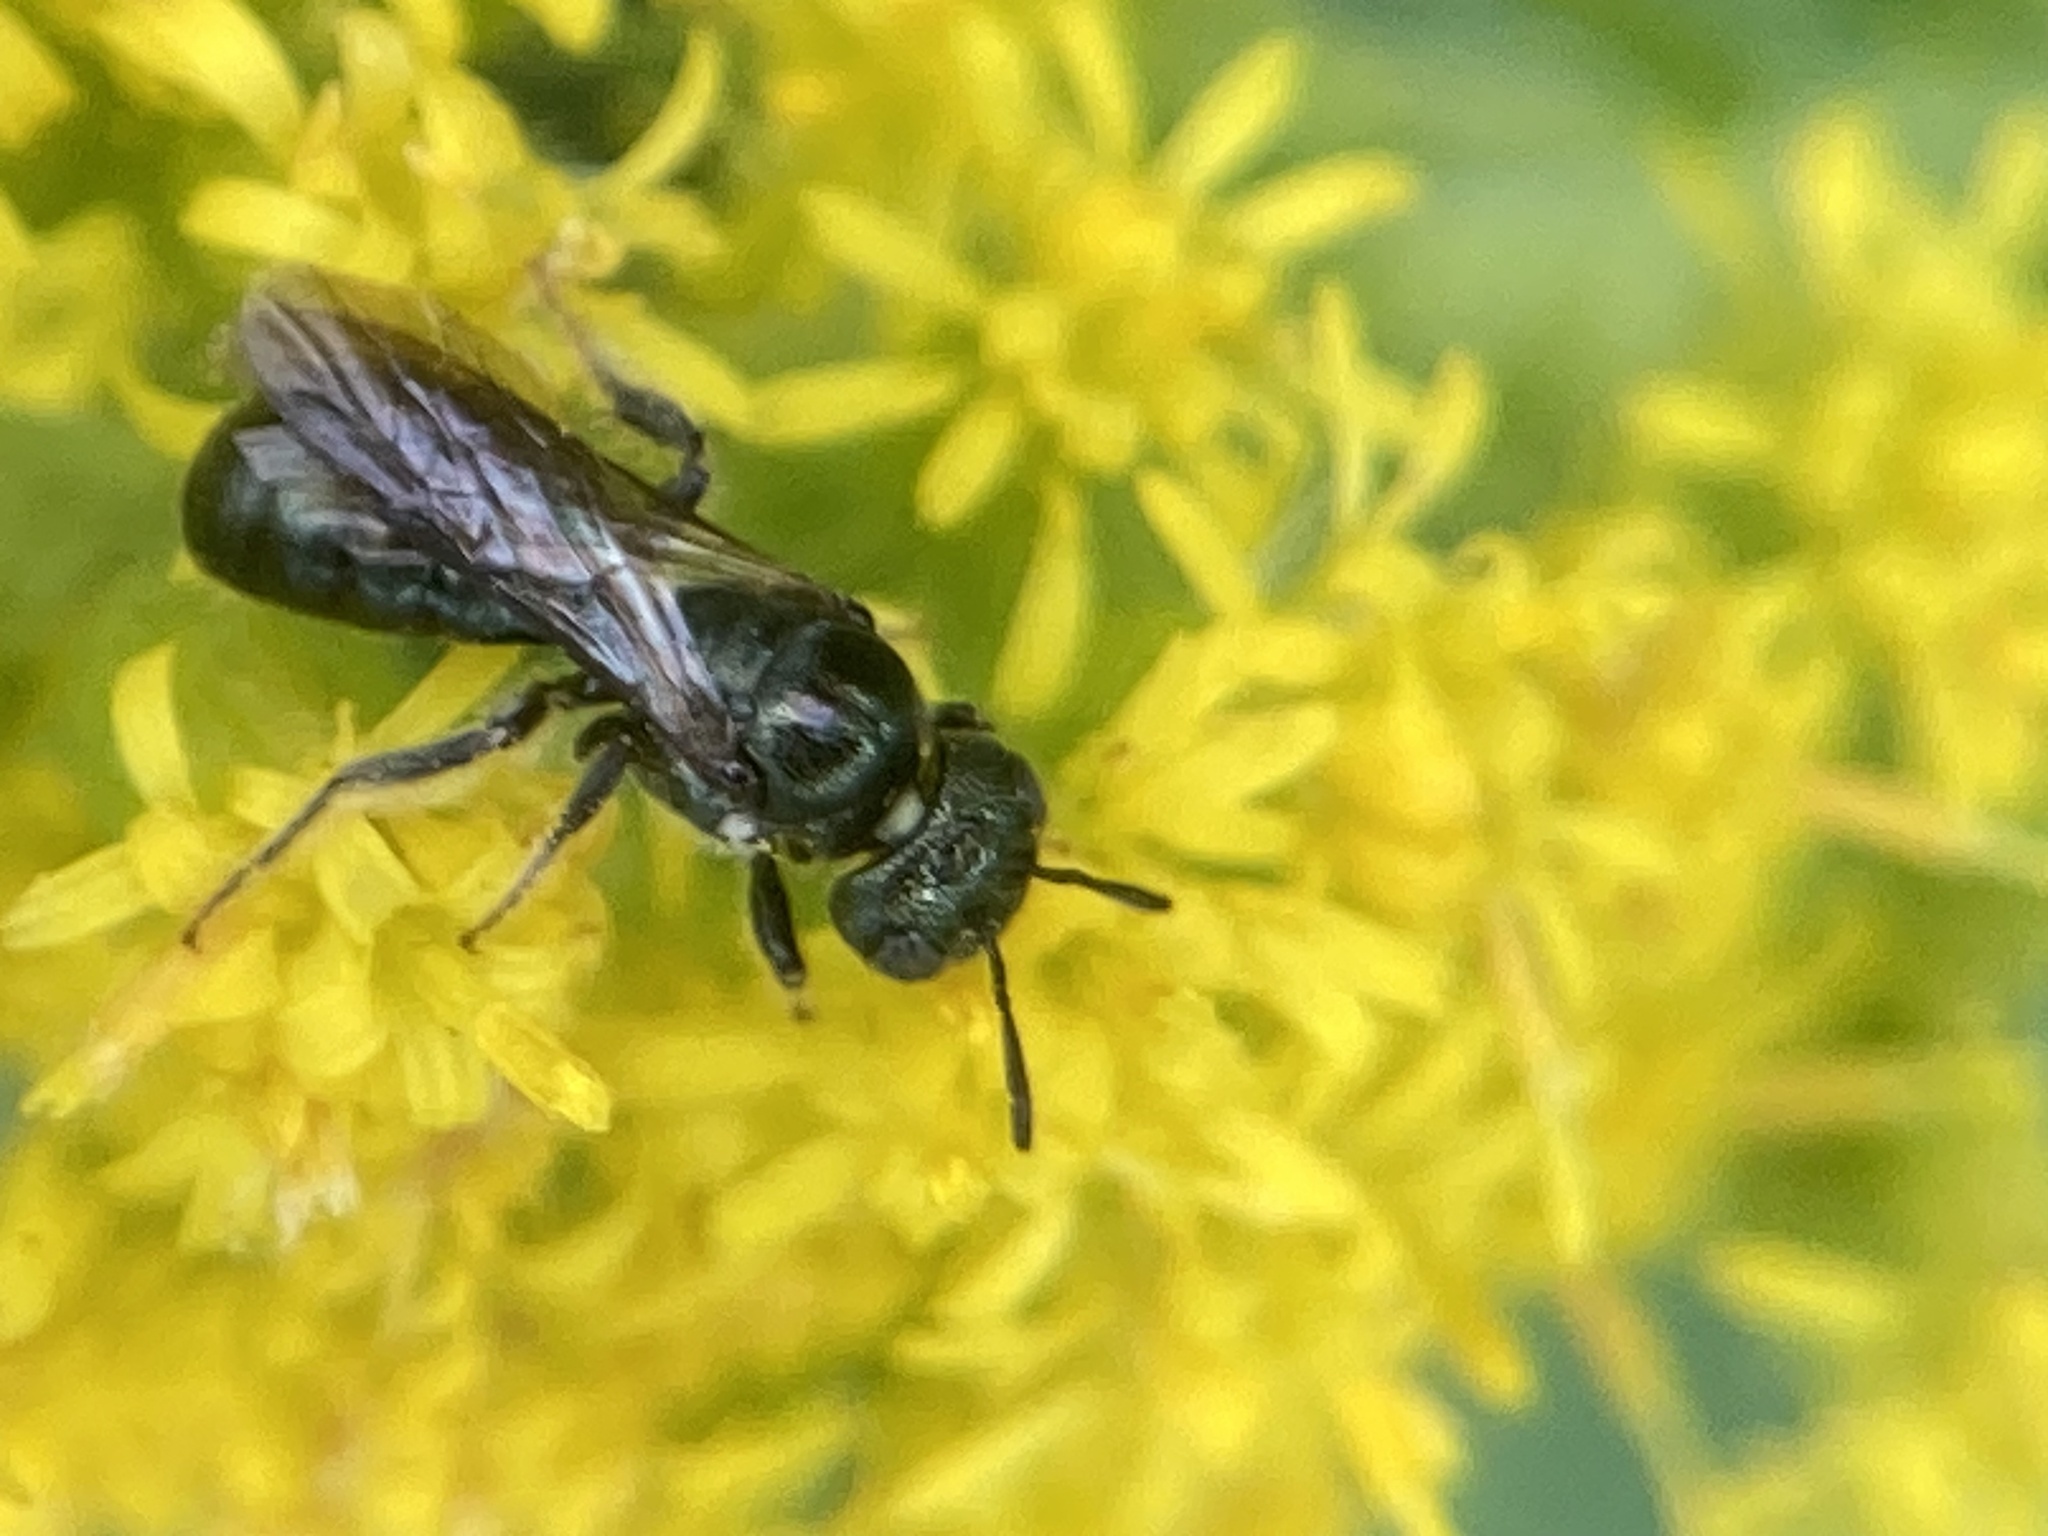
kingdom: Animalia
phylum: Arthropoda
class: Insecta
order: Hymenoptera
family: Apidae
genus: Zadontomerus
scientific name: Zadontomerus
